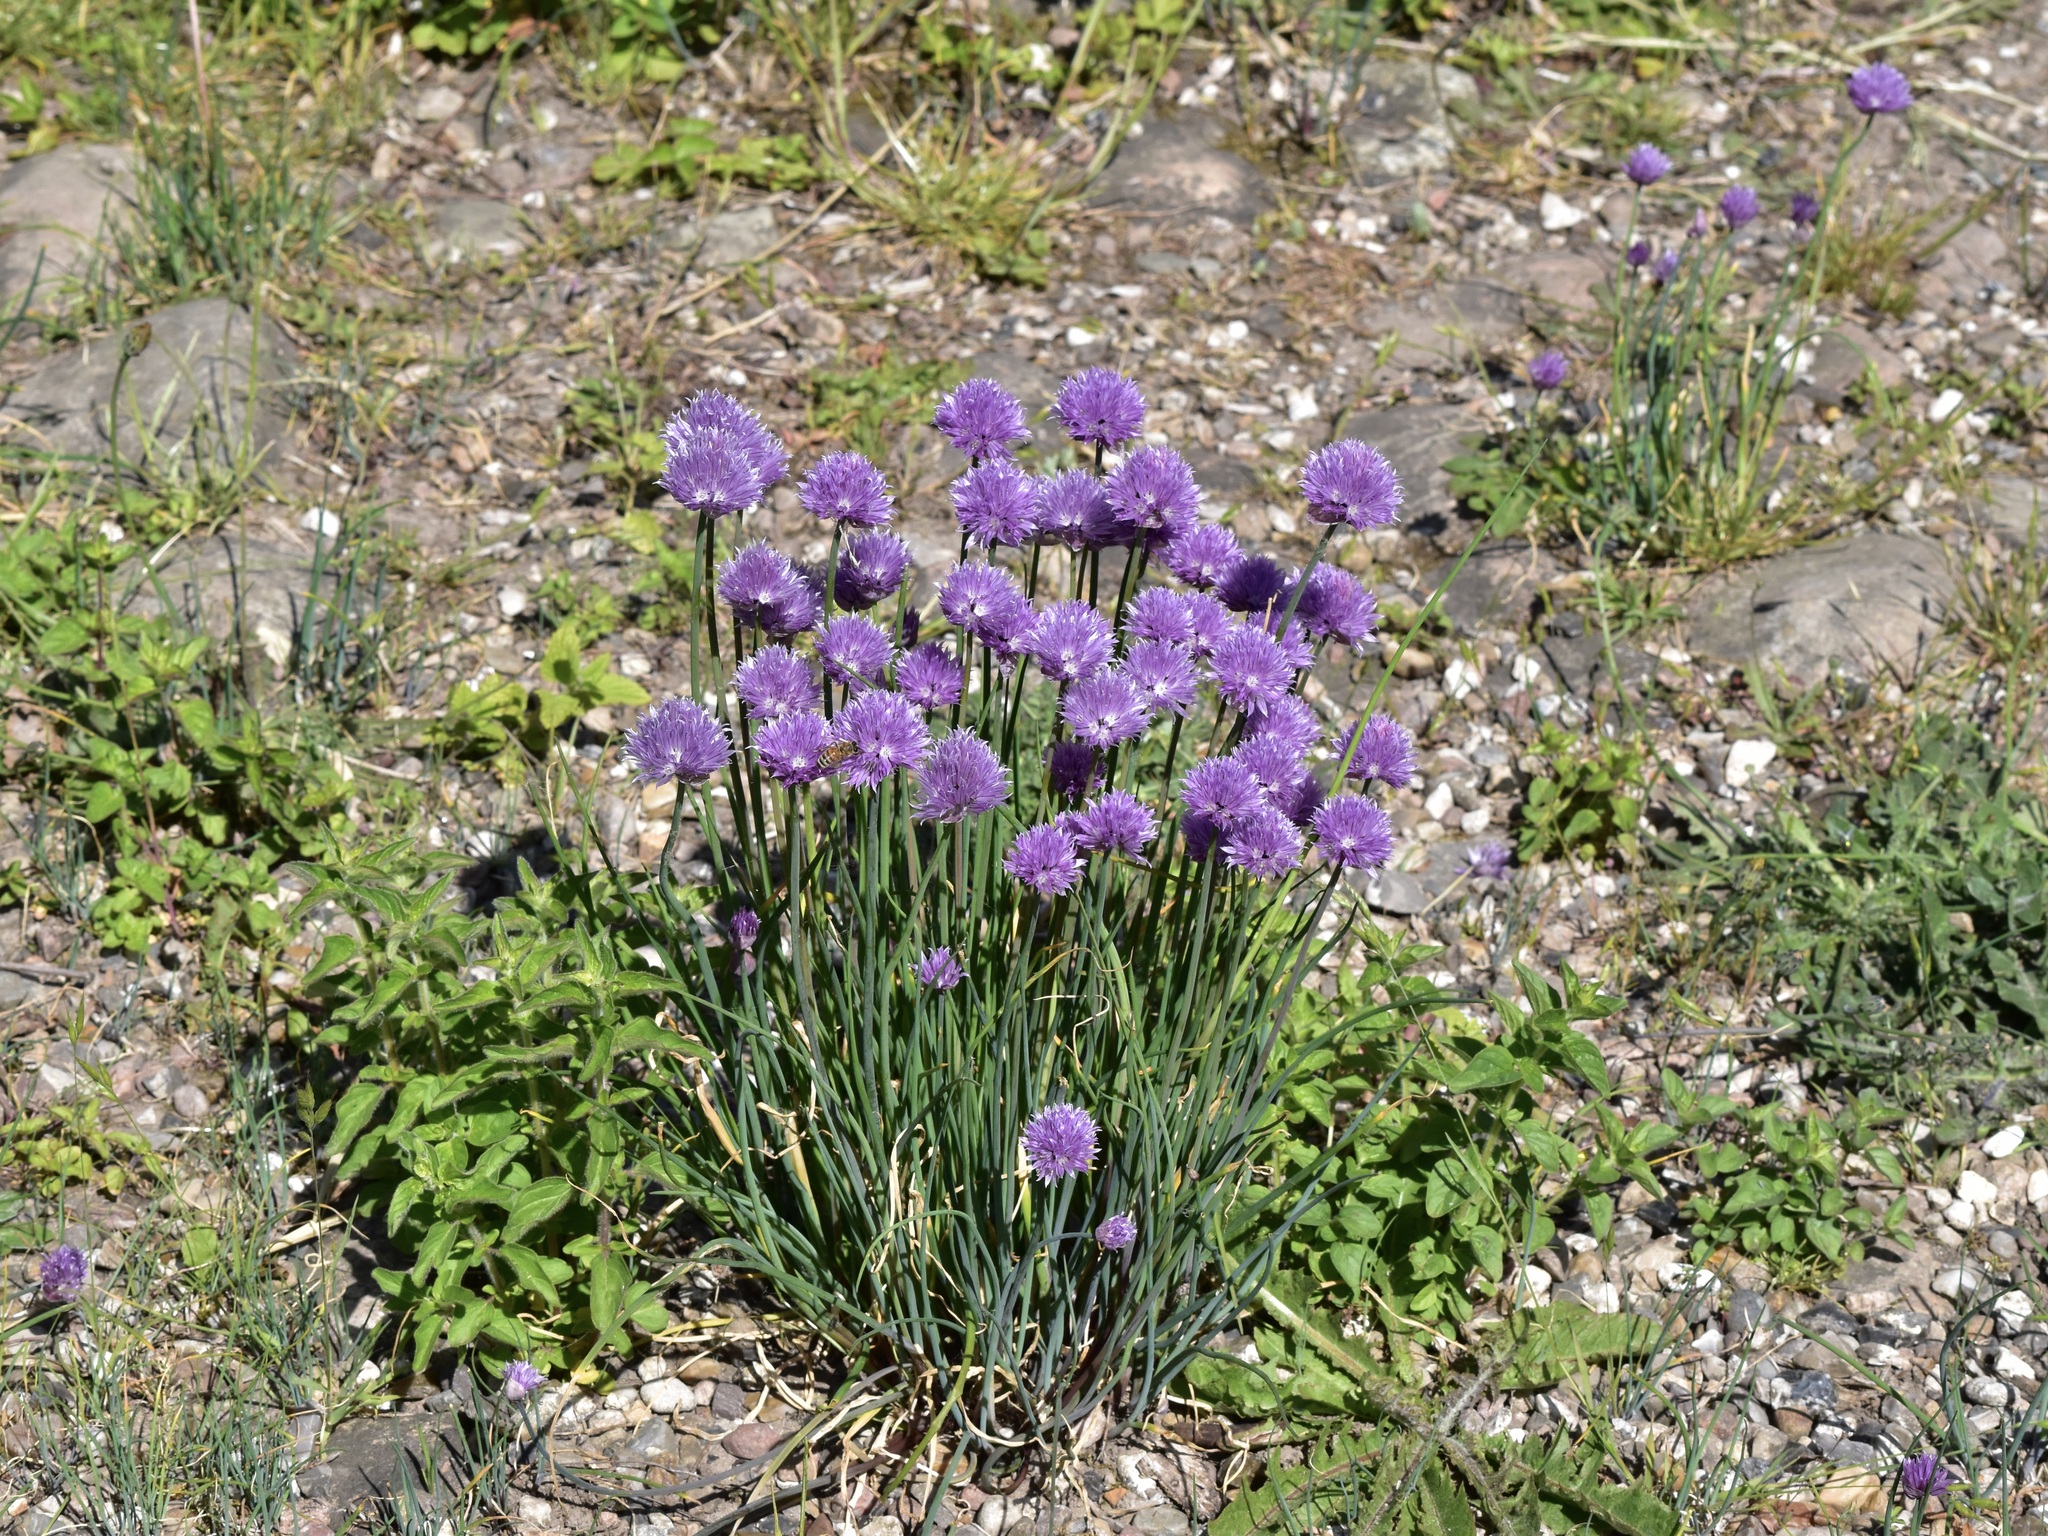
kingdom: Plantae
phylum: Tracheophyta
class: Liliopsida
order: Asparagales
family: Amaryllidaceae
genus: Allium
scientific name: Allium schoenoprasum
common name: Chives
